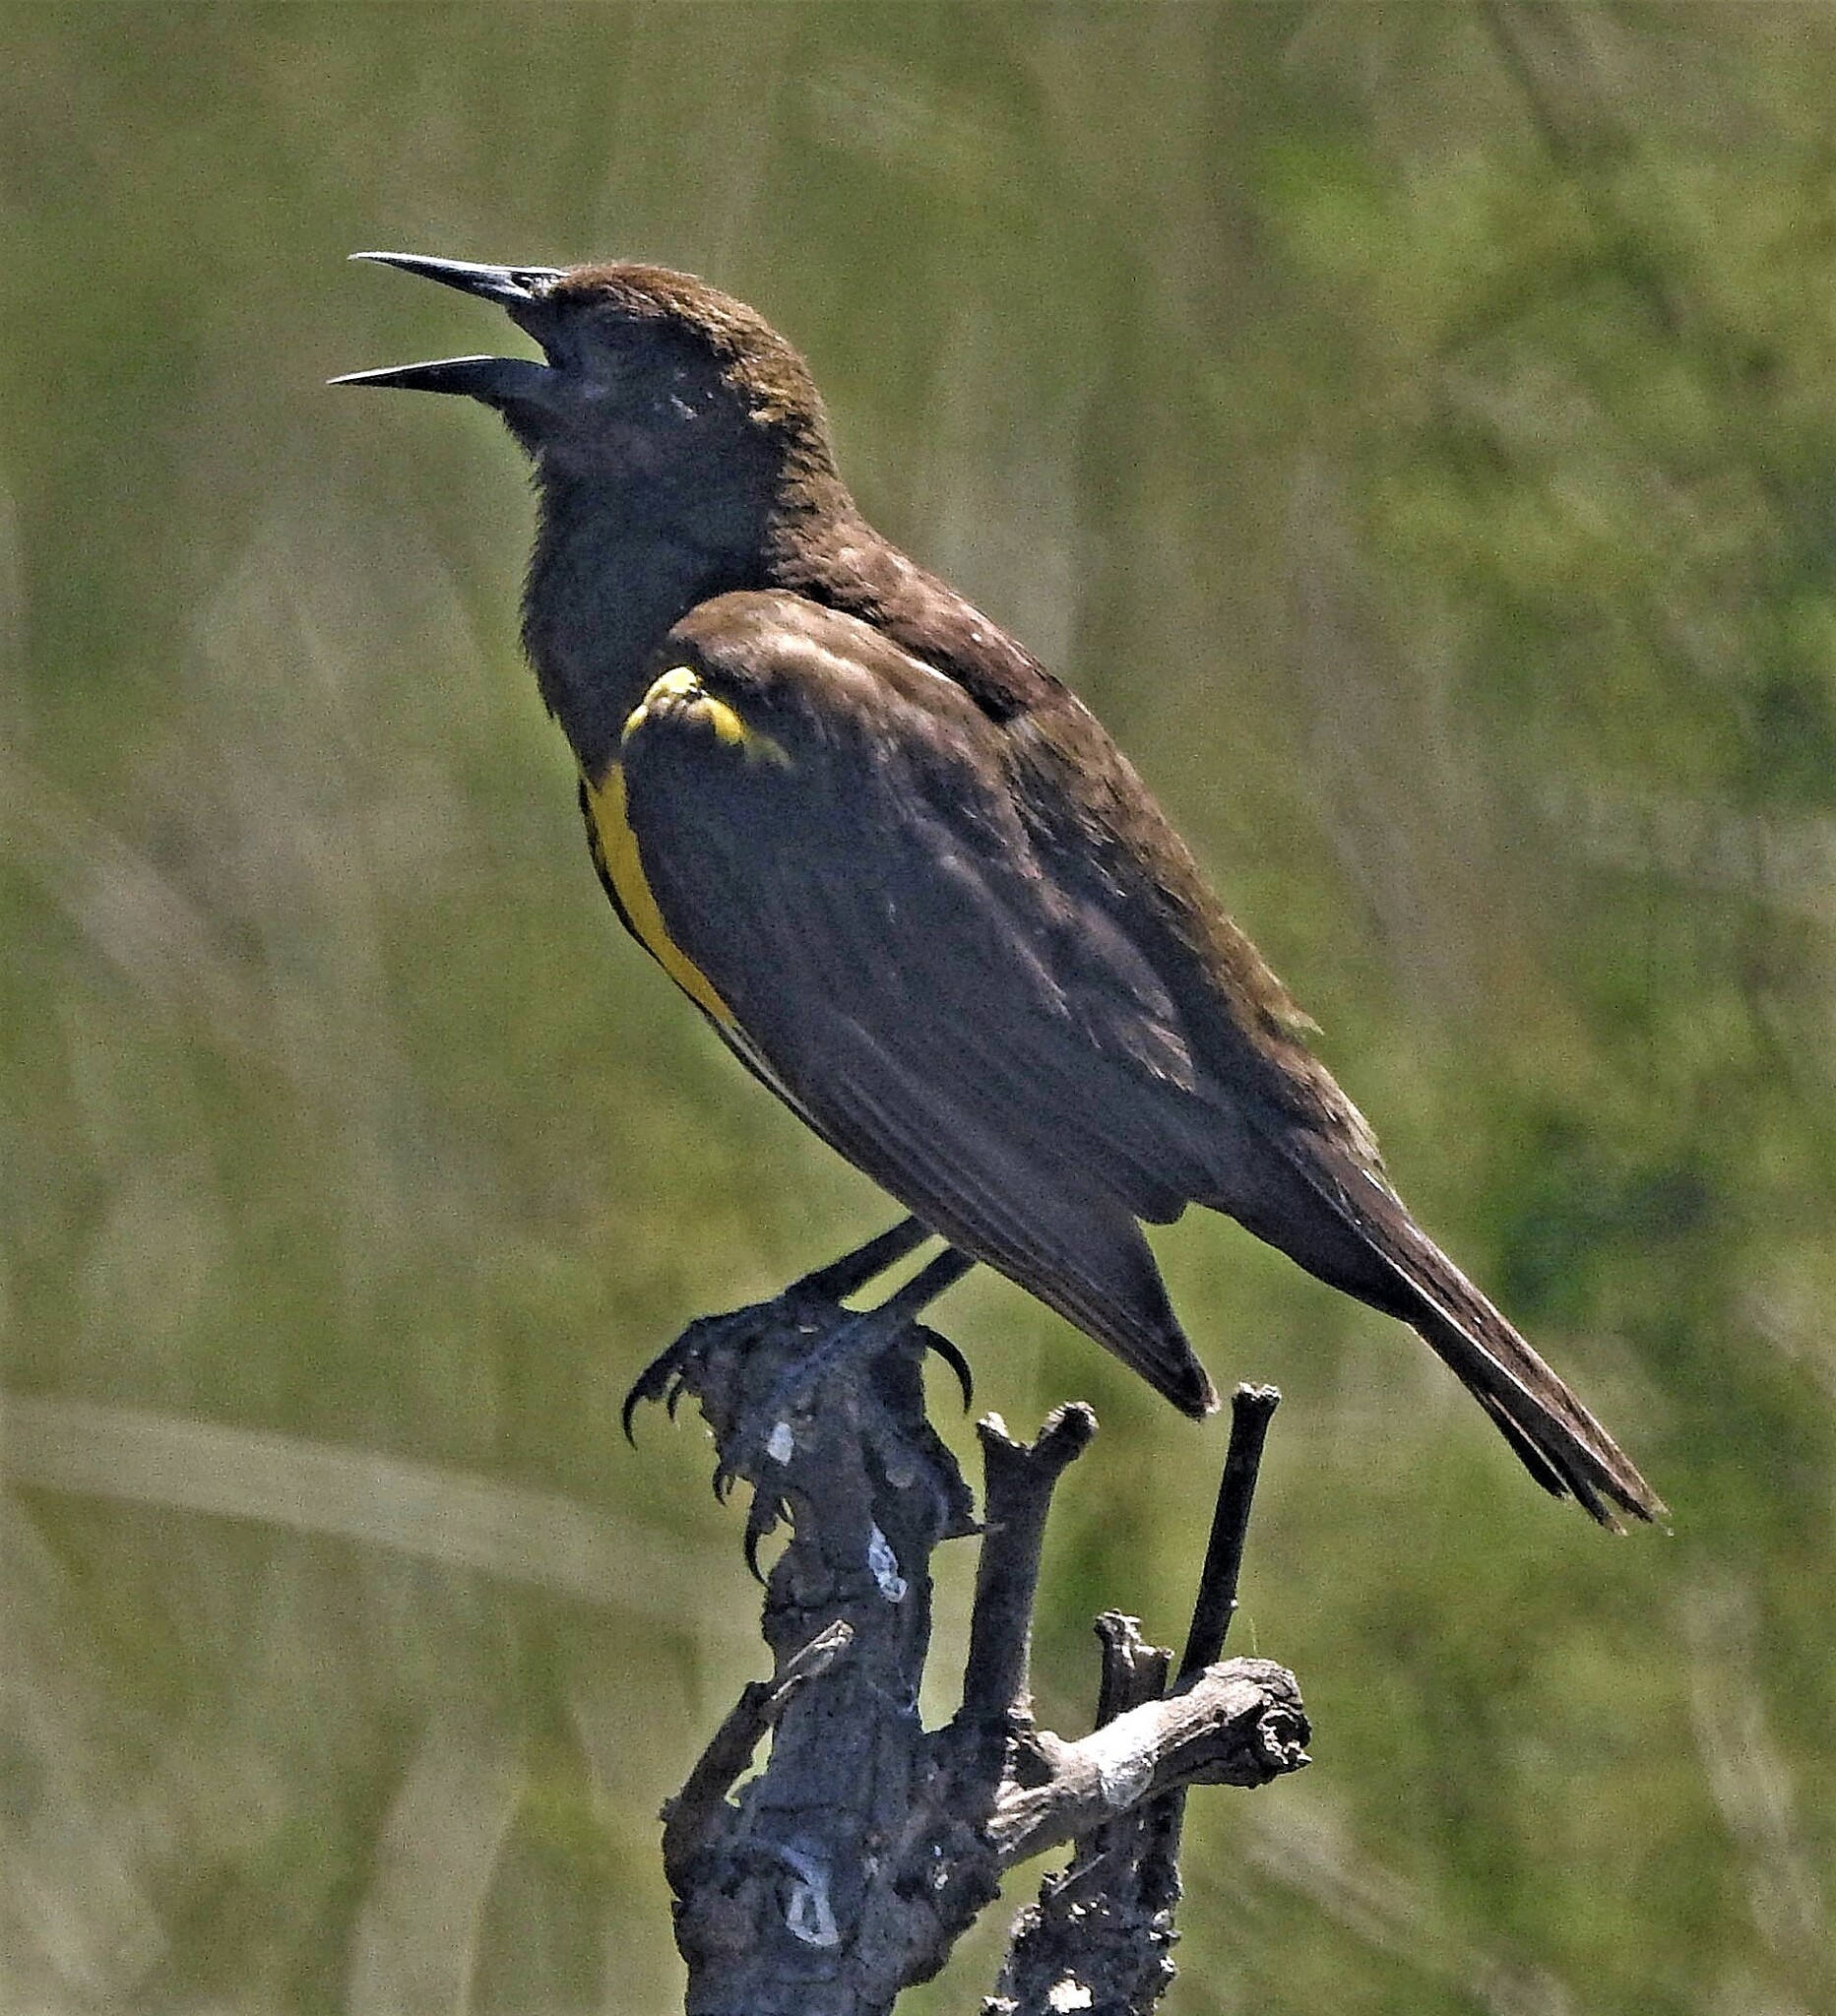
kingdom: Animalia
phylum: Chordata
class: Aves
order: Passeriformes
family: Icteridae
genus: Pseudoleistes
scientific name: Pseudoleistes virescens
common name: Brown-and-yellow marshbird
